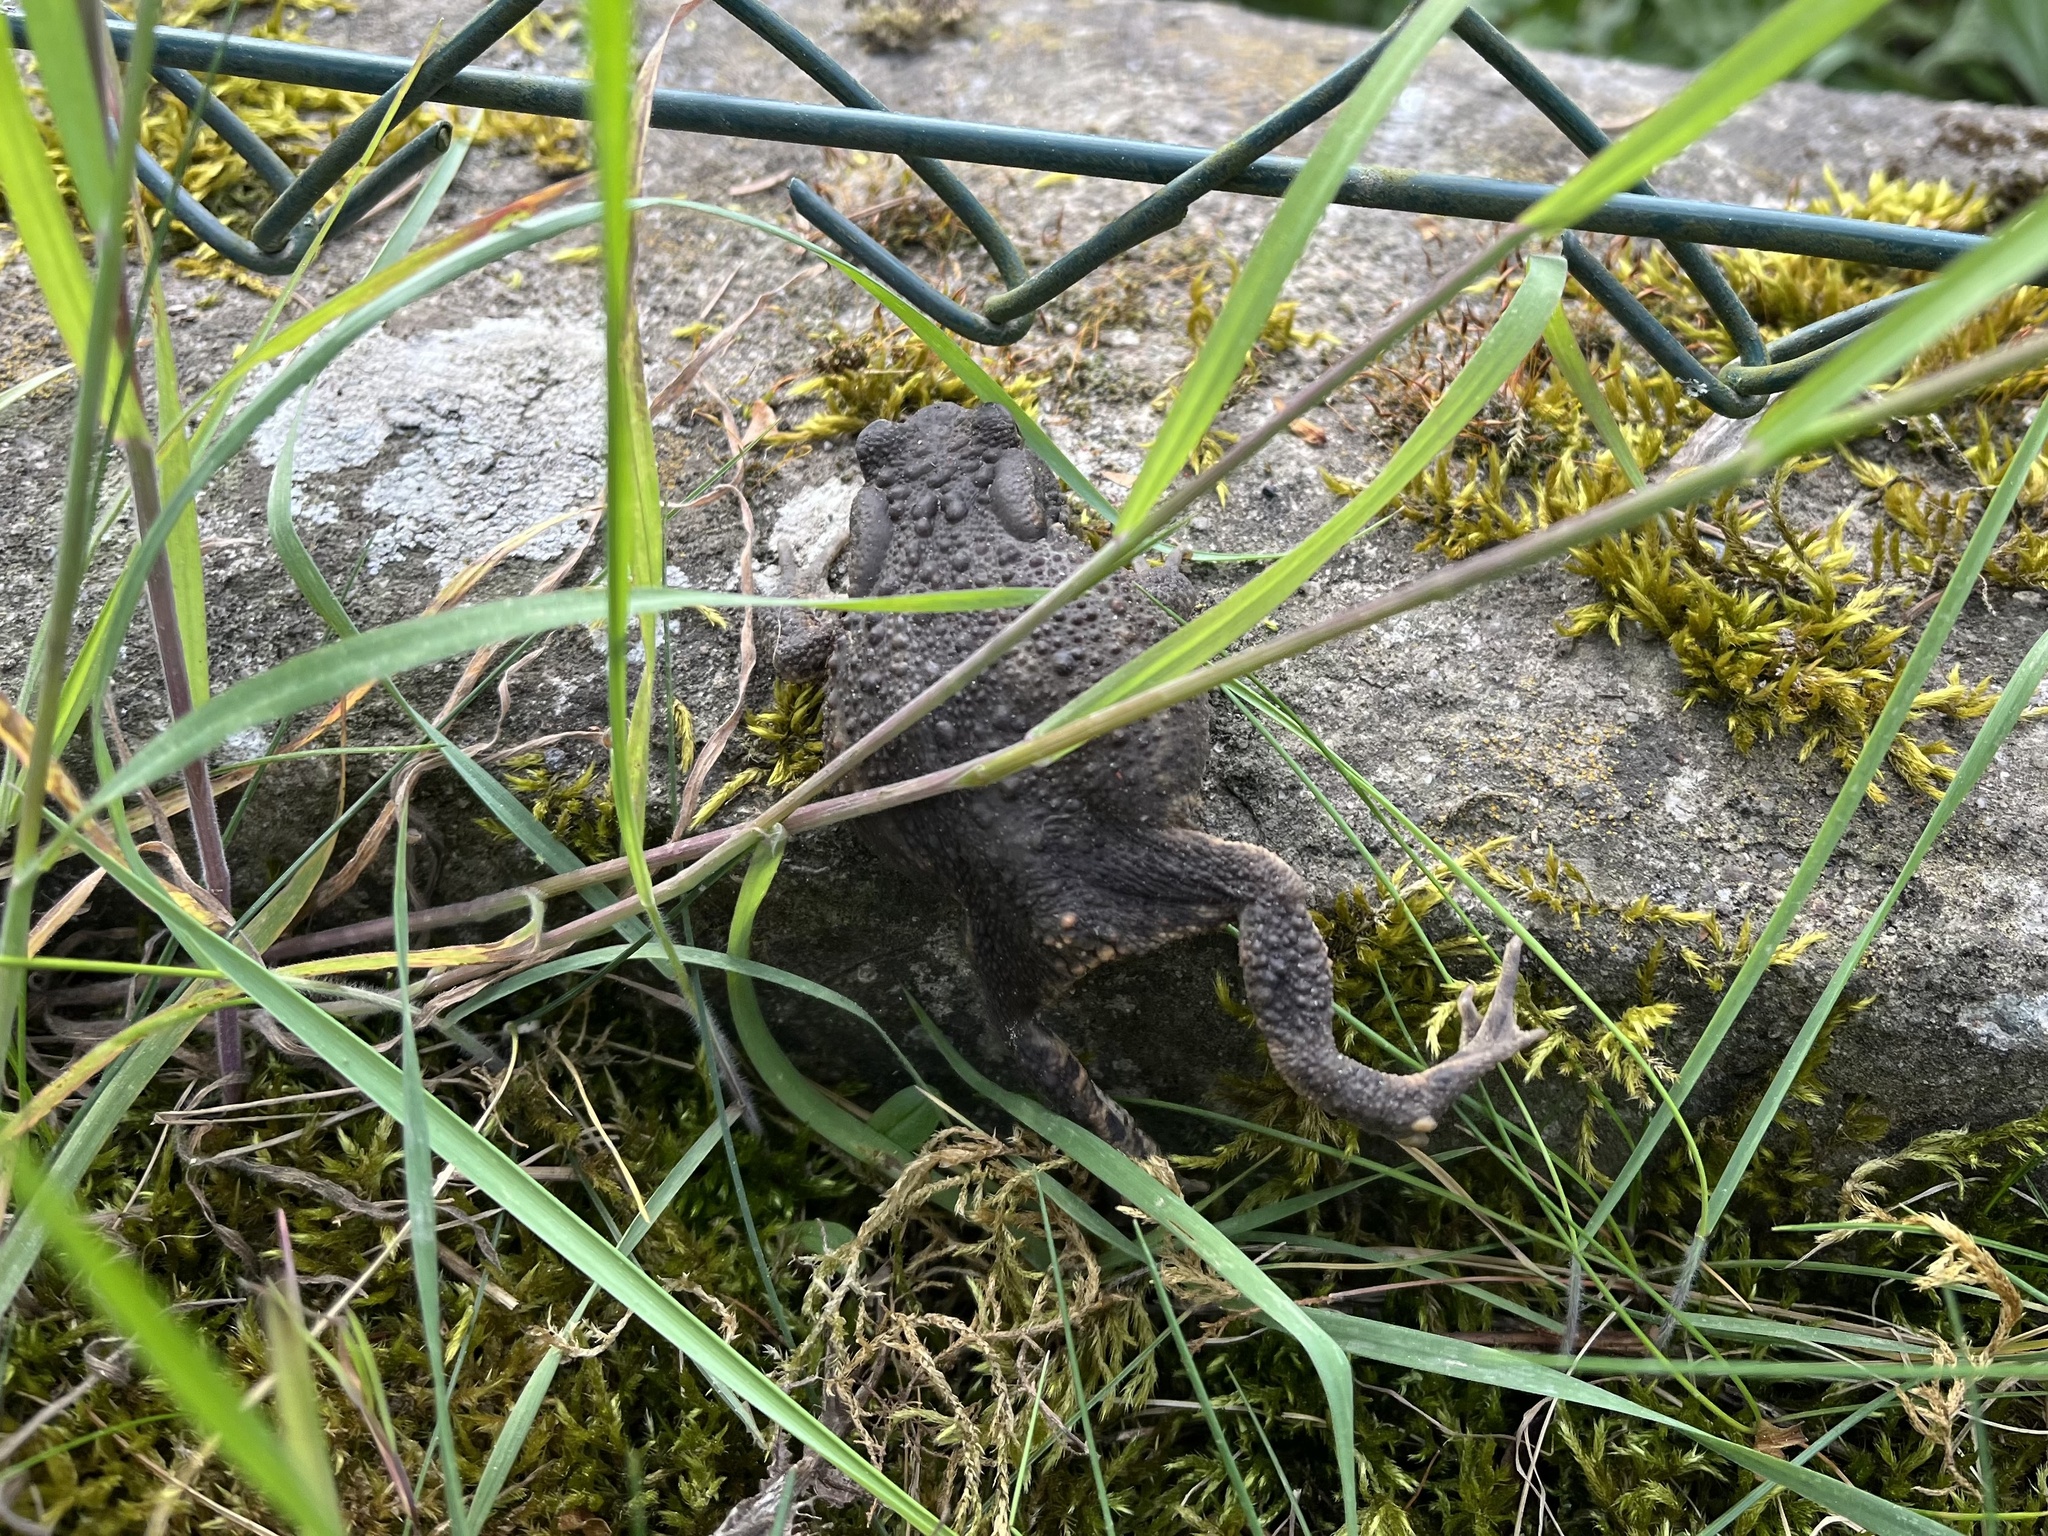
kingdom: Animalia
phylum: Chordata
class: Amphibia
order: Anura
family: Bufonidae
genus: Bufo
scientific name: Bufo bufo
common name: Common toad
